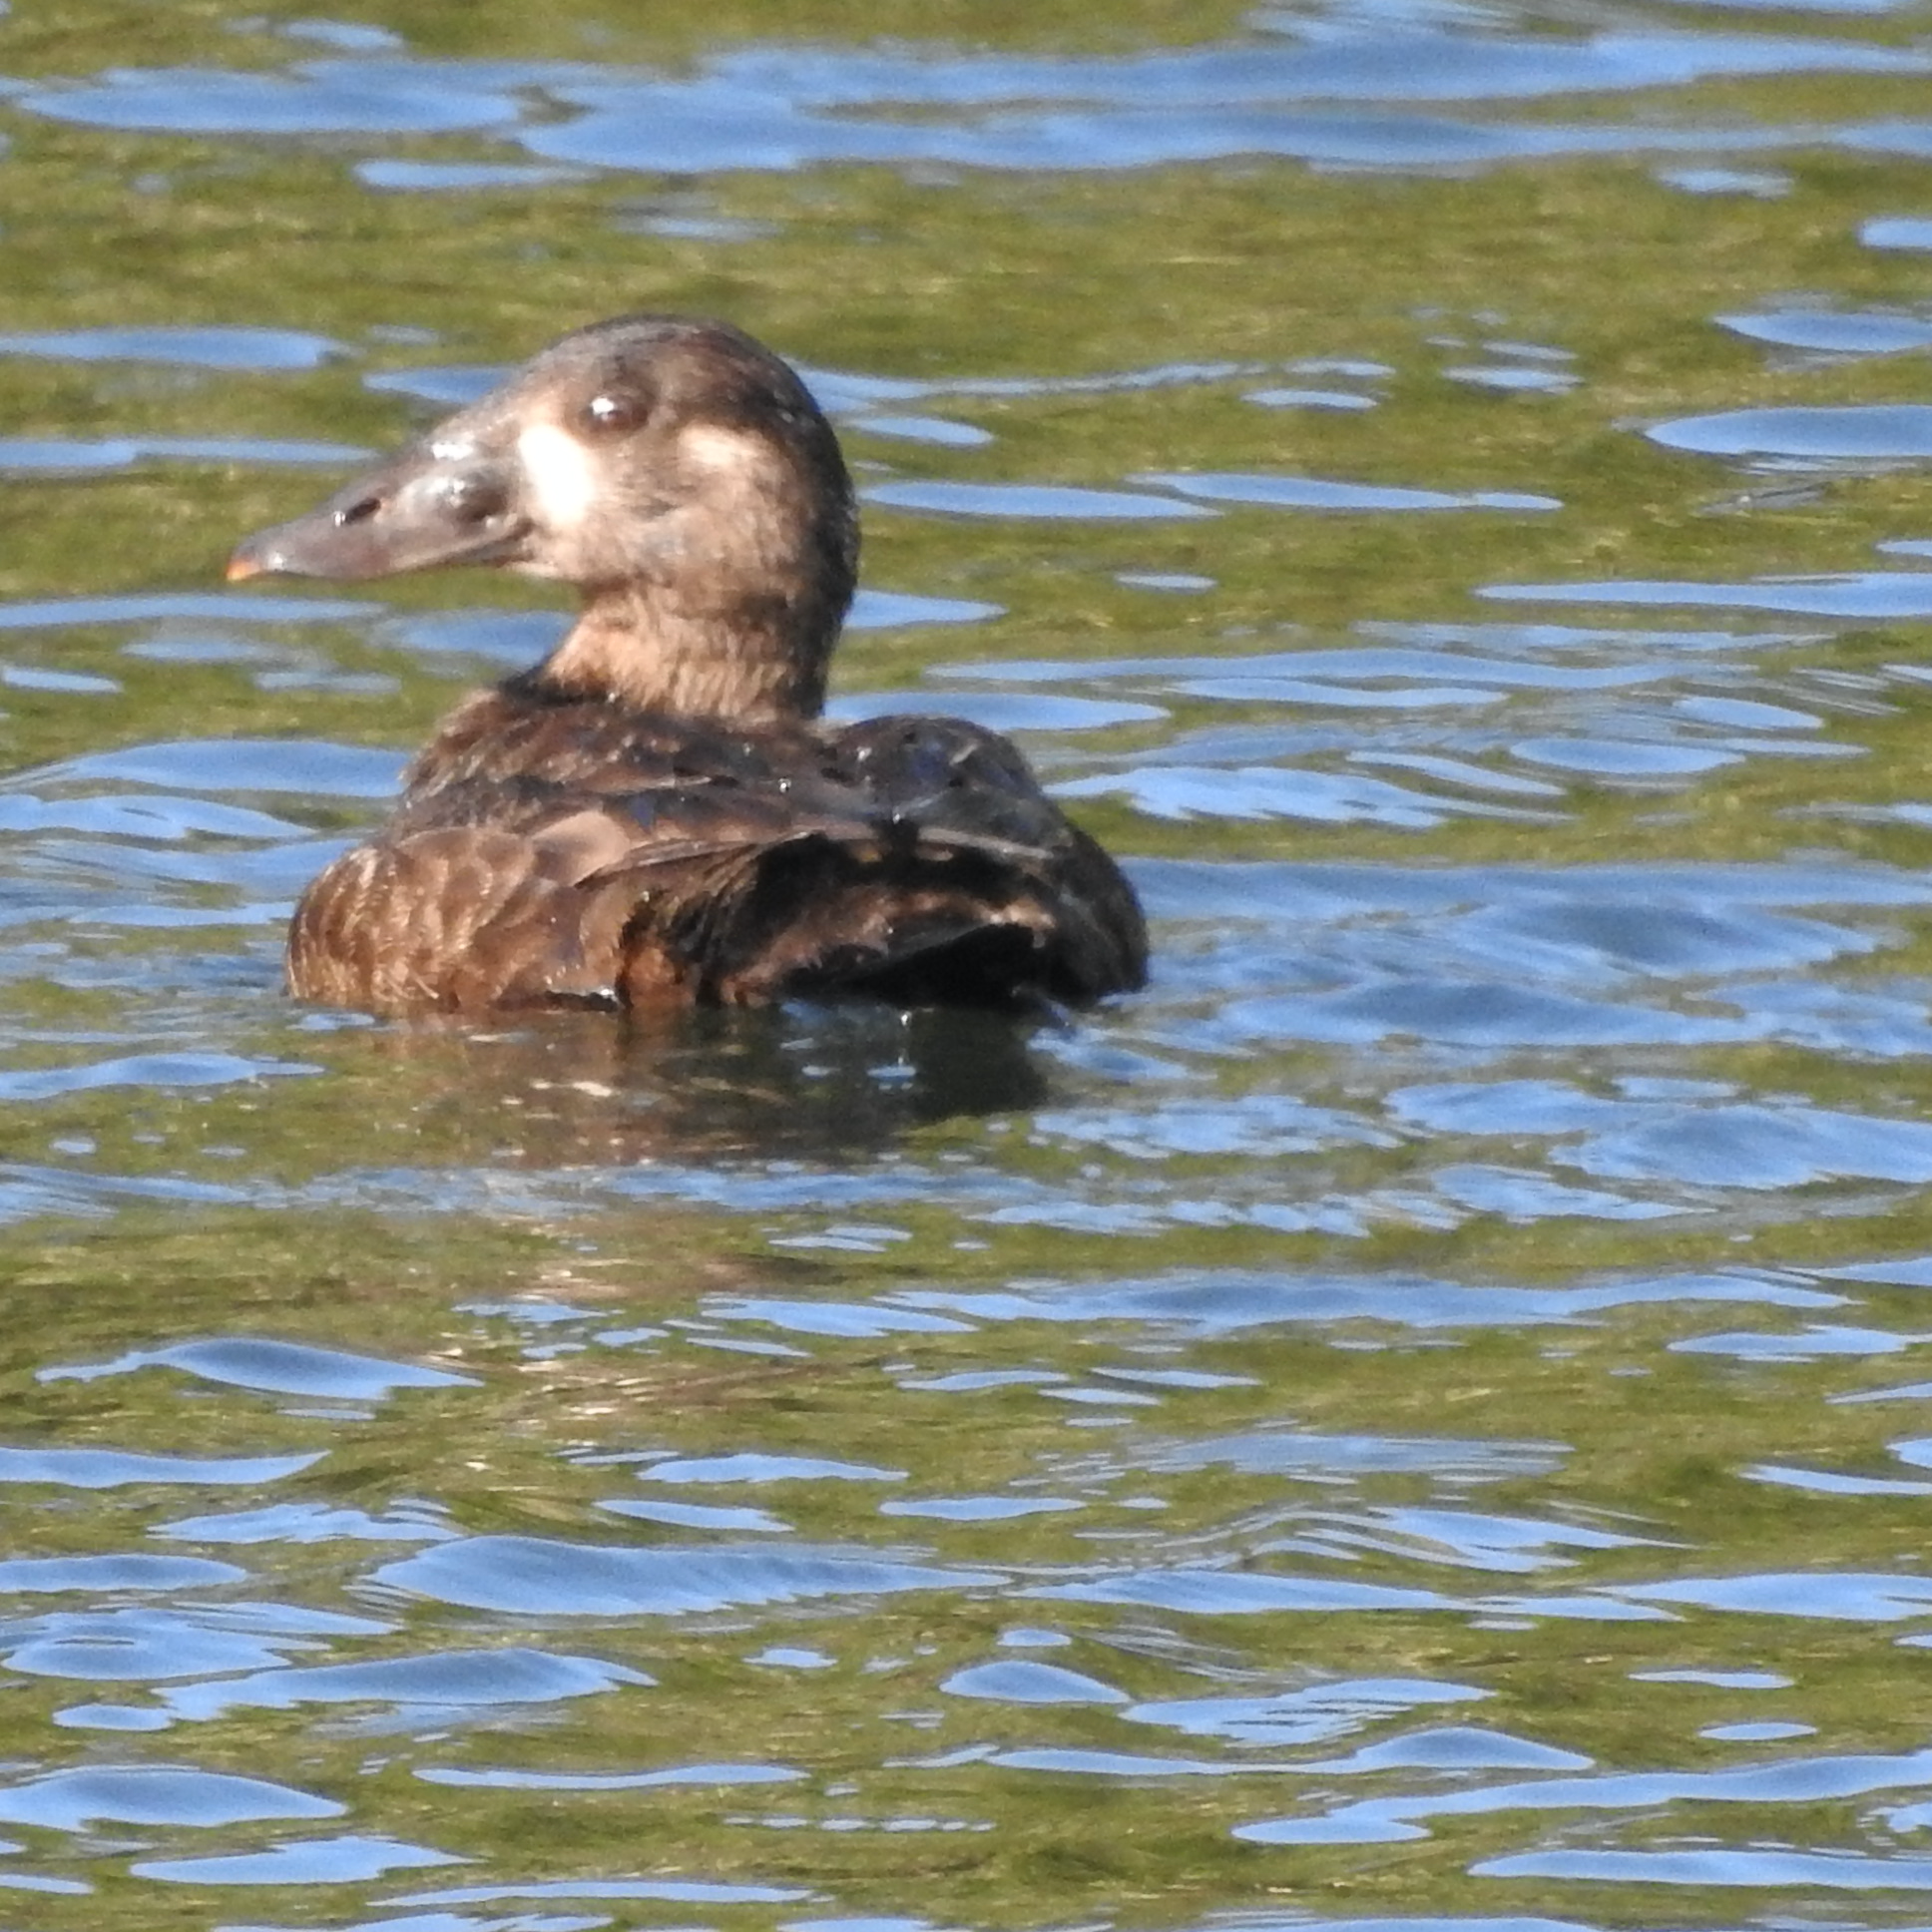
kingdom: Animalia
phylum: Chordata
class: Aves
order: Anseriformes
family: Anatidae
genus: Melanitta
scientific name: Melanitta perspicillata
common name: Surf scoter
